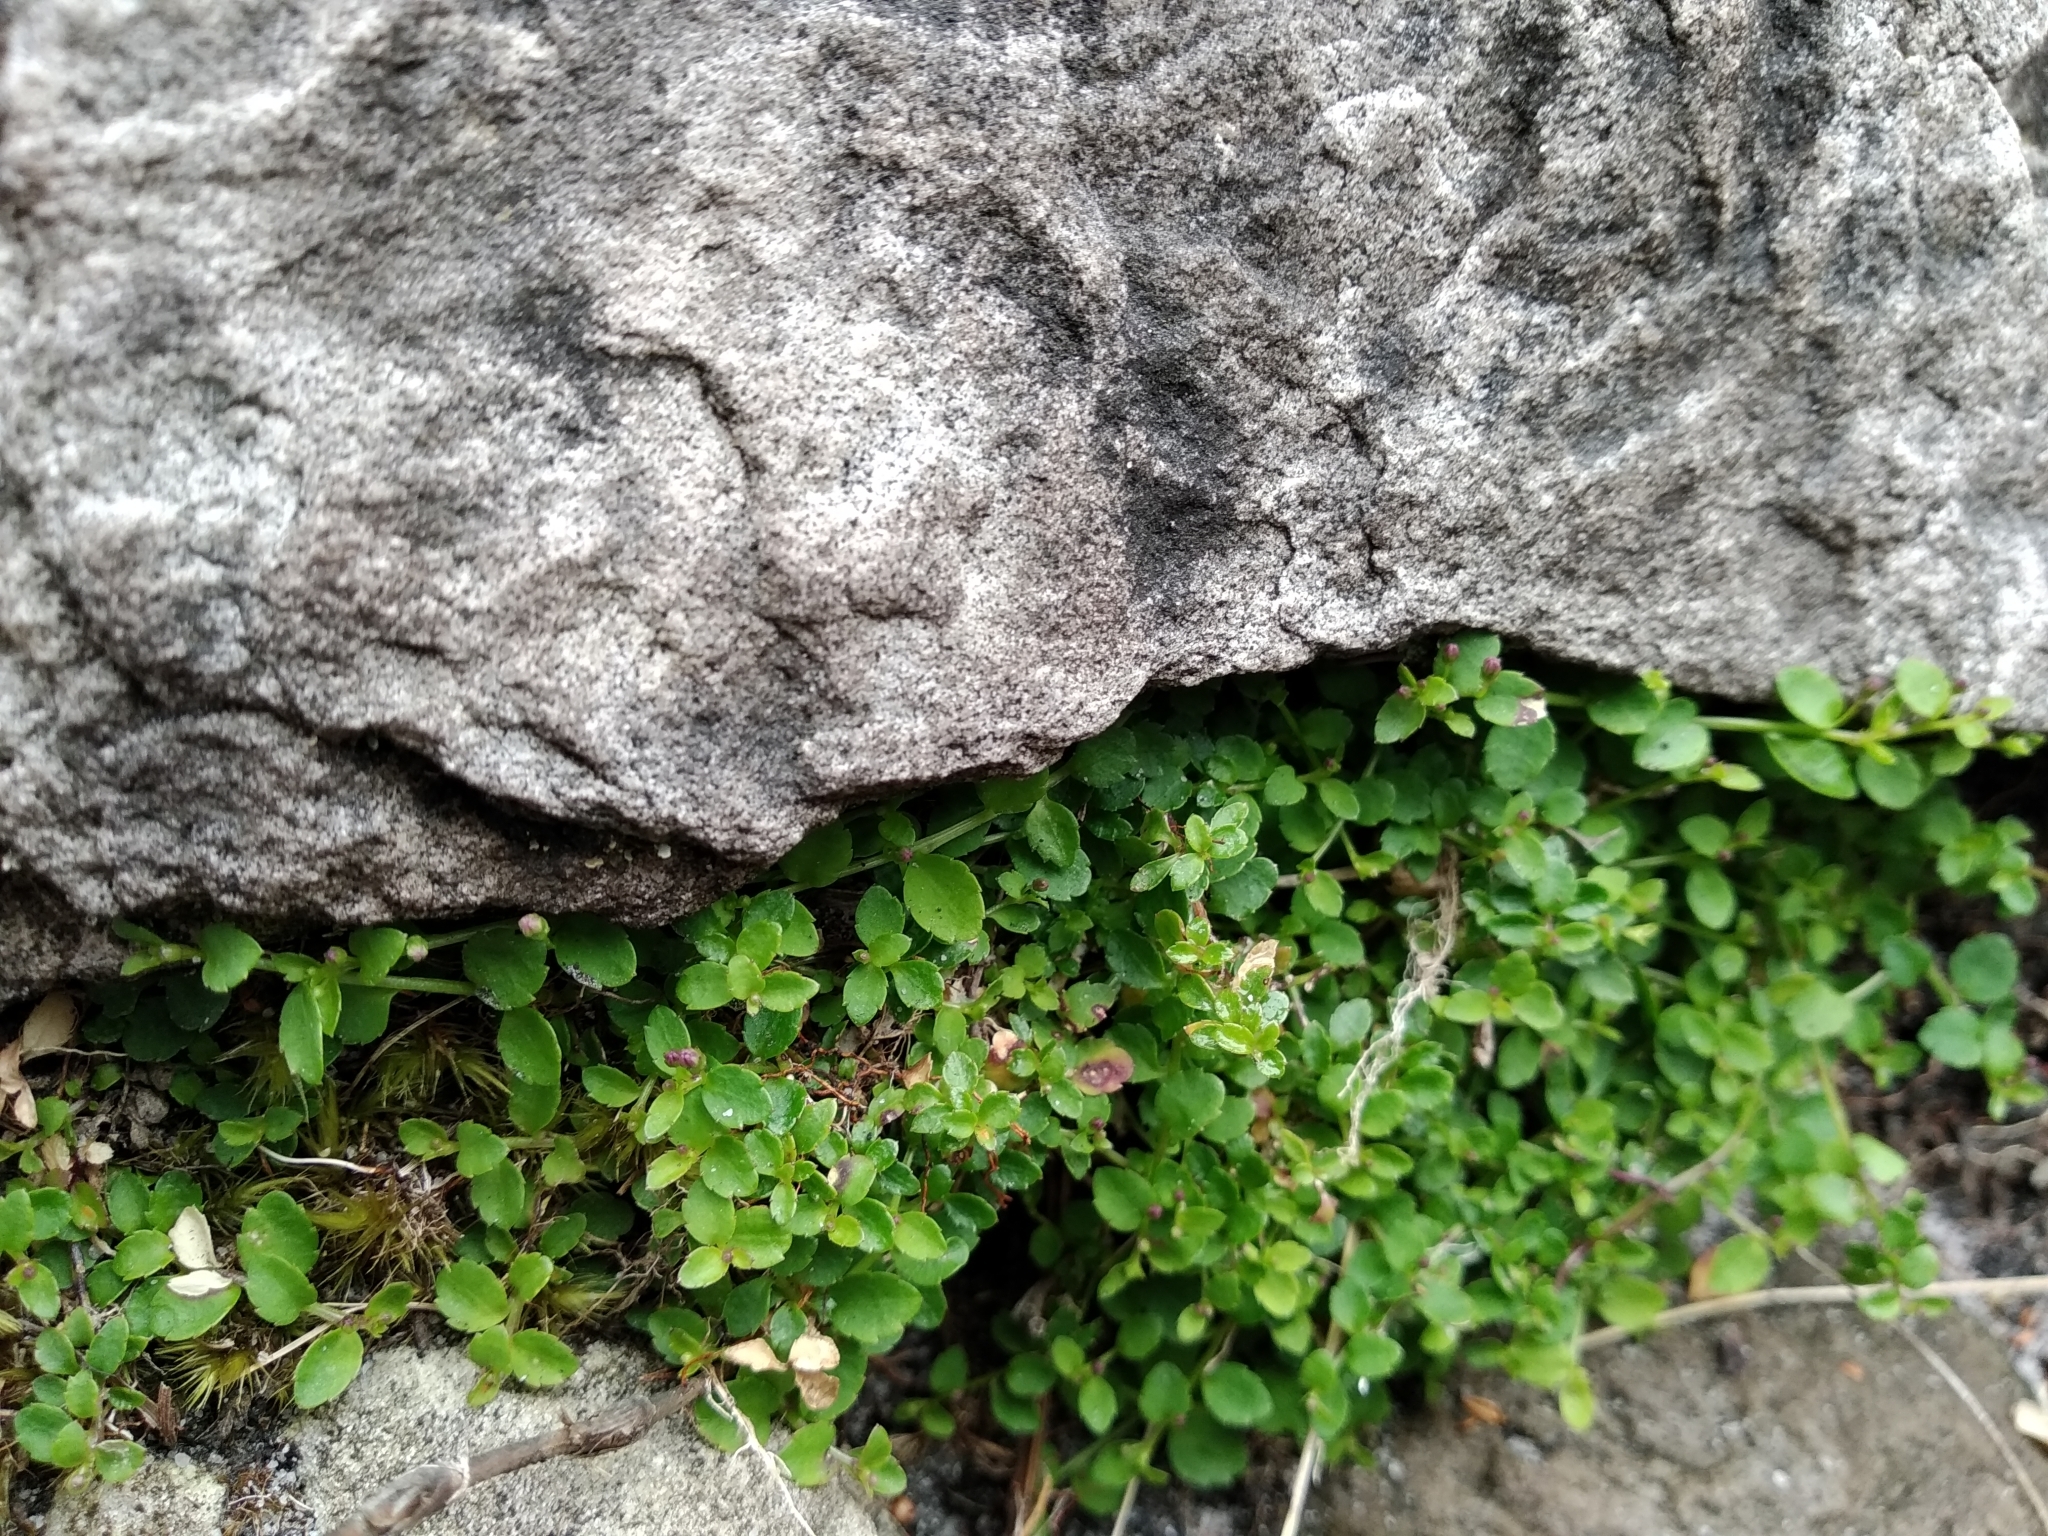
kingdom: Plantae
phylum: Tracheophyta
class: Magnoliopsida
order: Asterales
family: Campanulaceae
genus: Unigenes
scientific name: Unigenes humifusa
